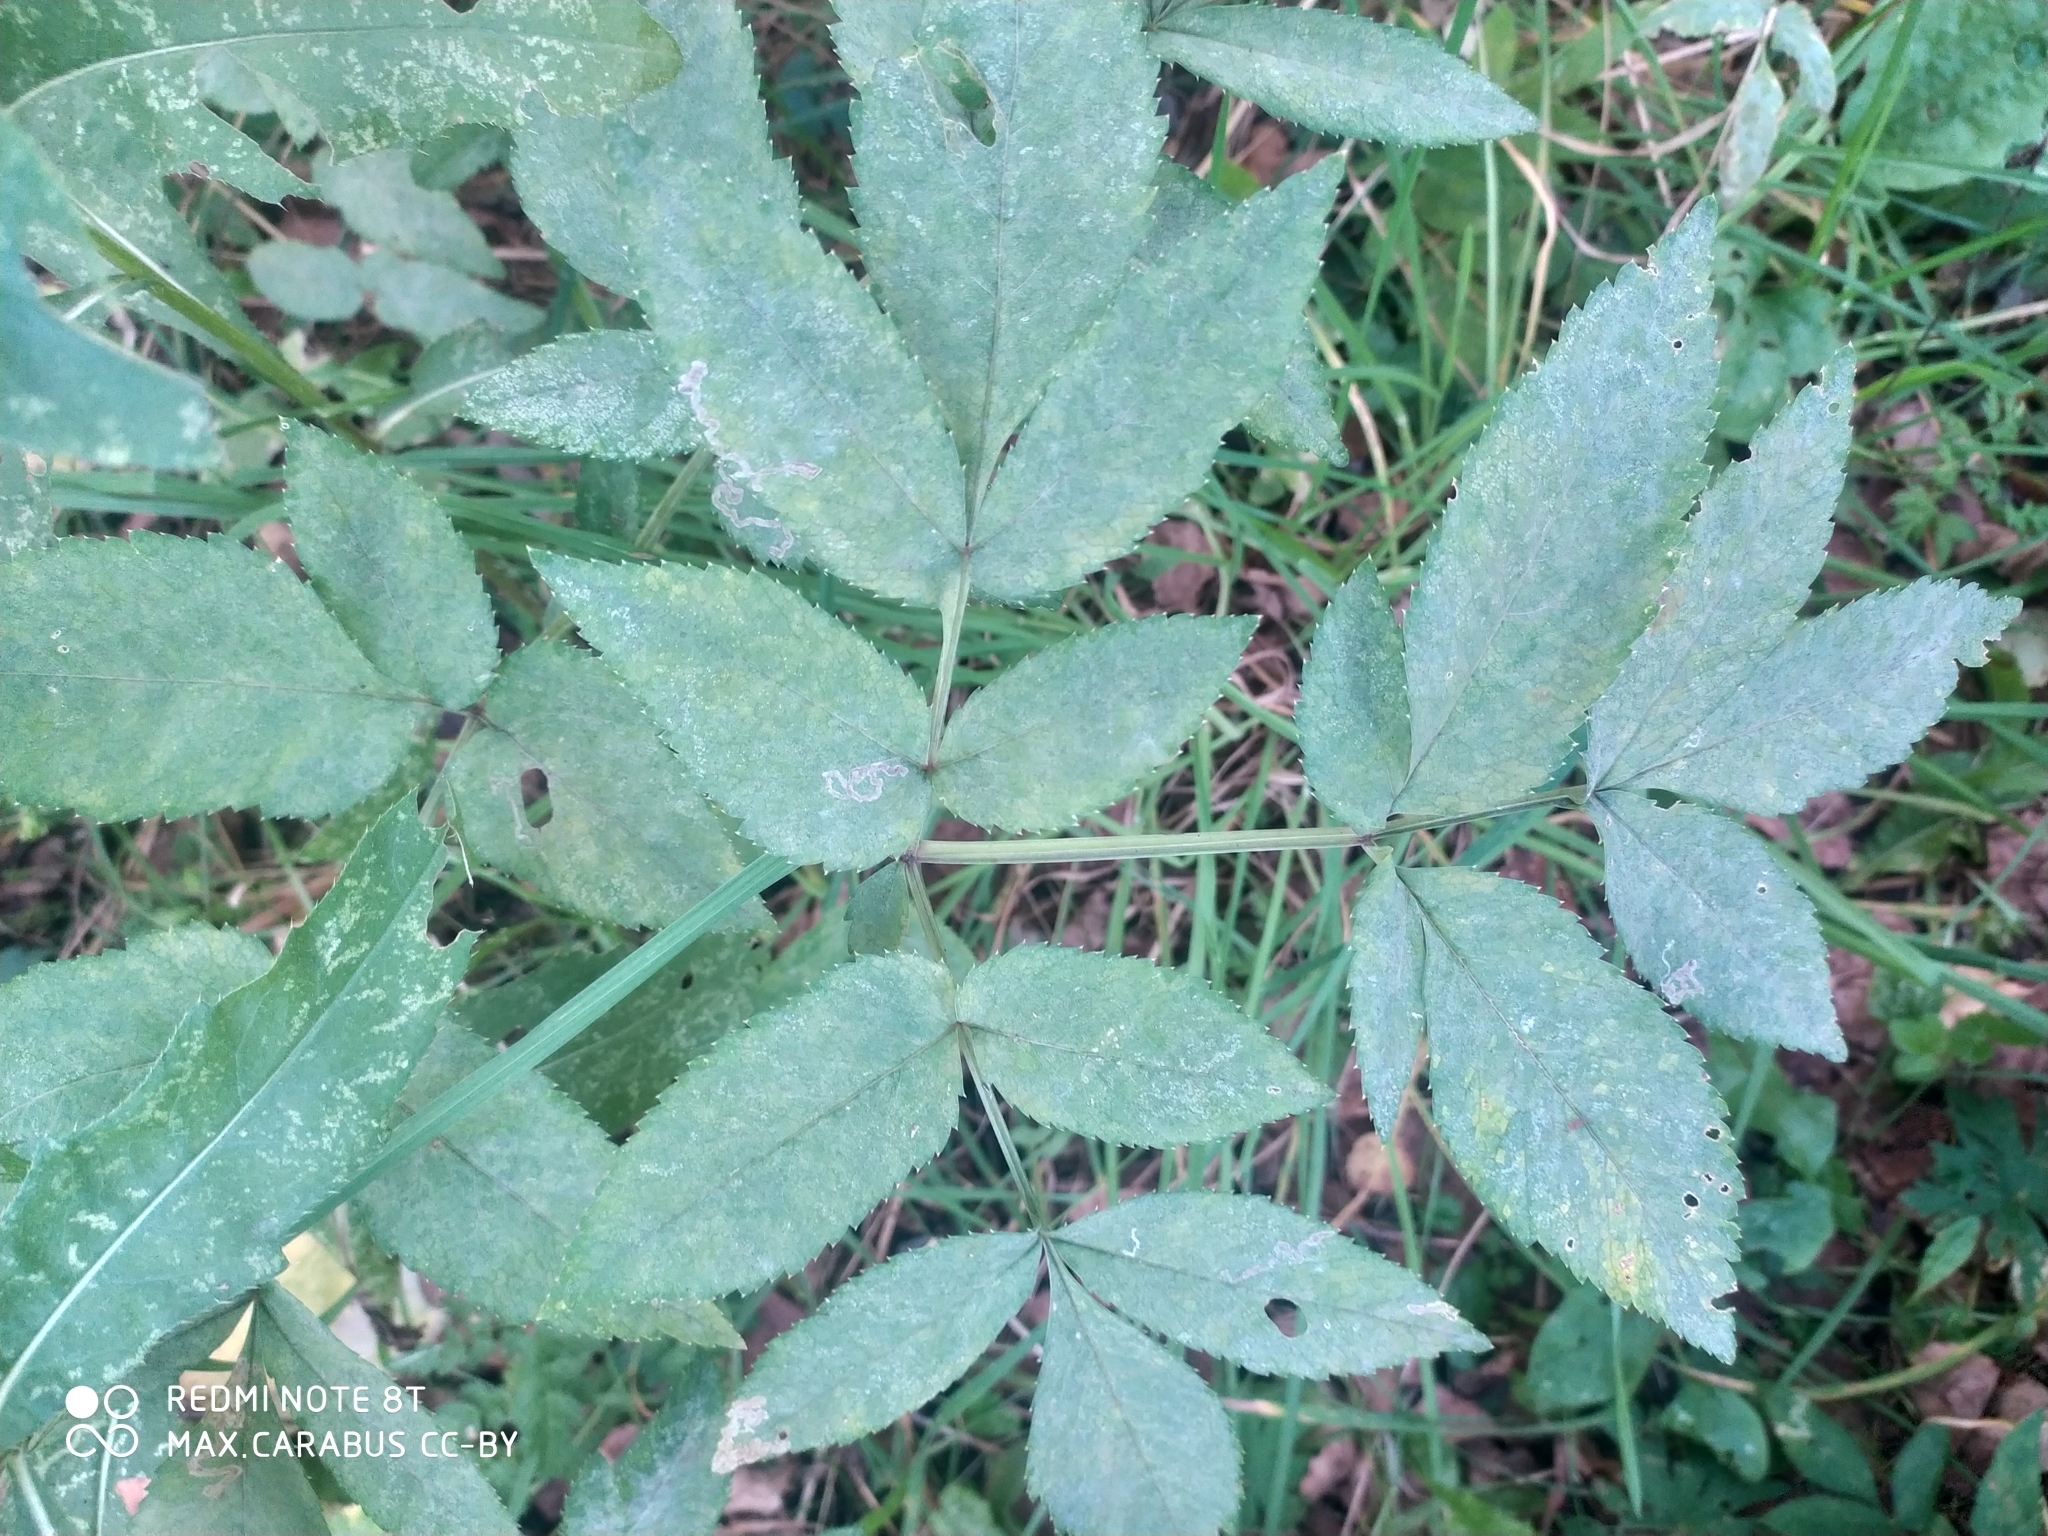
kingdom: Plantae
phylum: Tracheophyta
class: Magnoliopsida
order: Apiales
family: Apiaceae
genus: Angelica
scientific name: Angelica sylvestris
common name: Wild angelica
